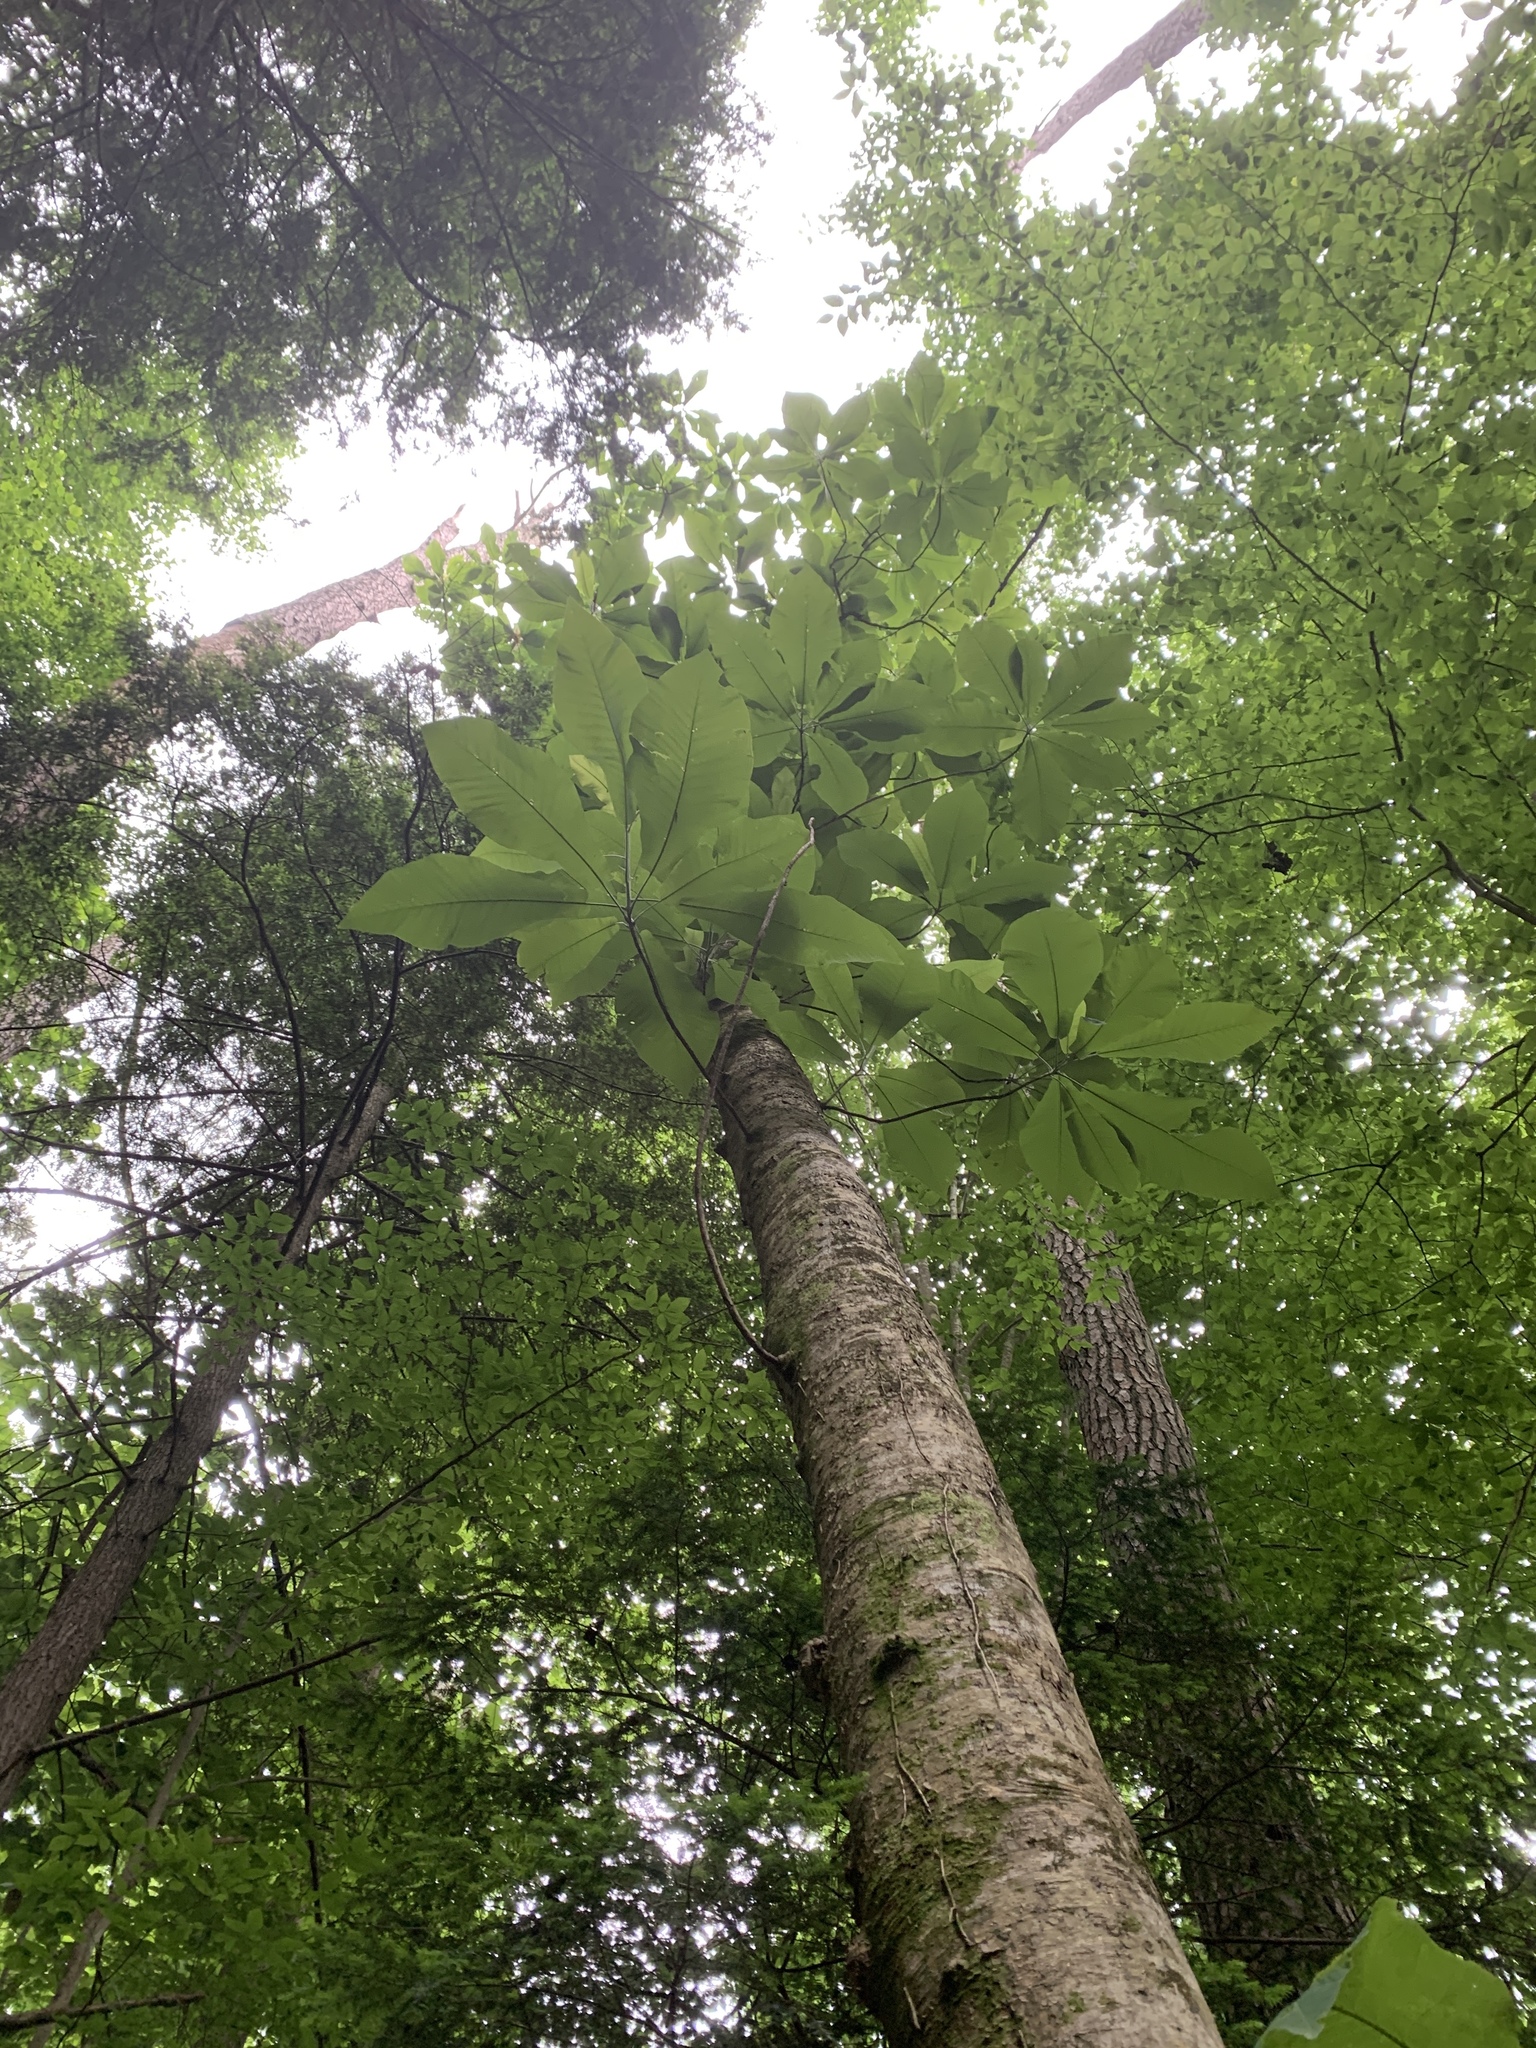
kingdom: Plantae
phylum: Tracheophyta
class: Magnoliopsida
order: Magnoliales
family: Magnoliaceae
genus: Magnolia
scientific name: Magnolia macrophylla
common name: Big-leaf magnolia
